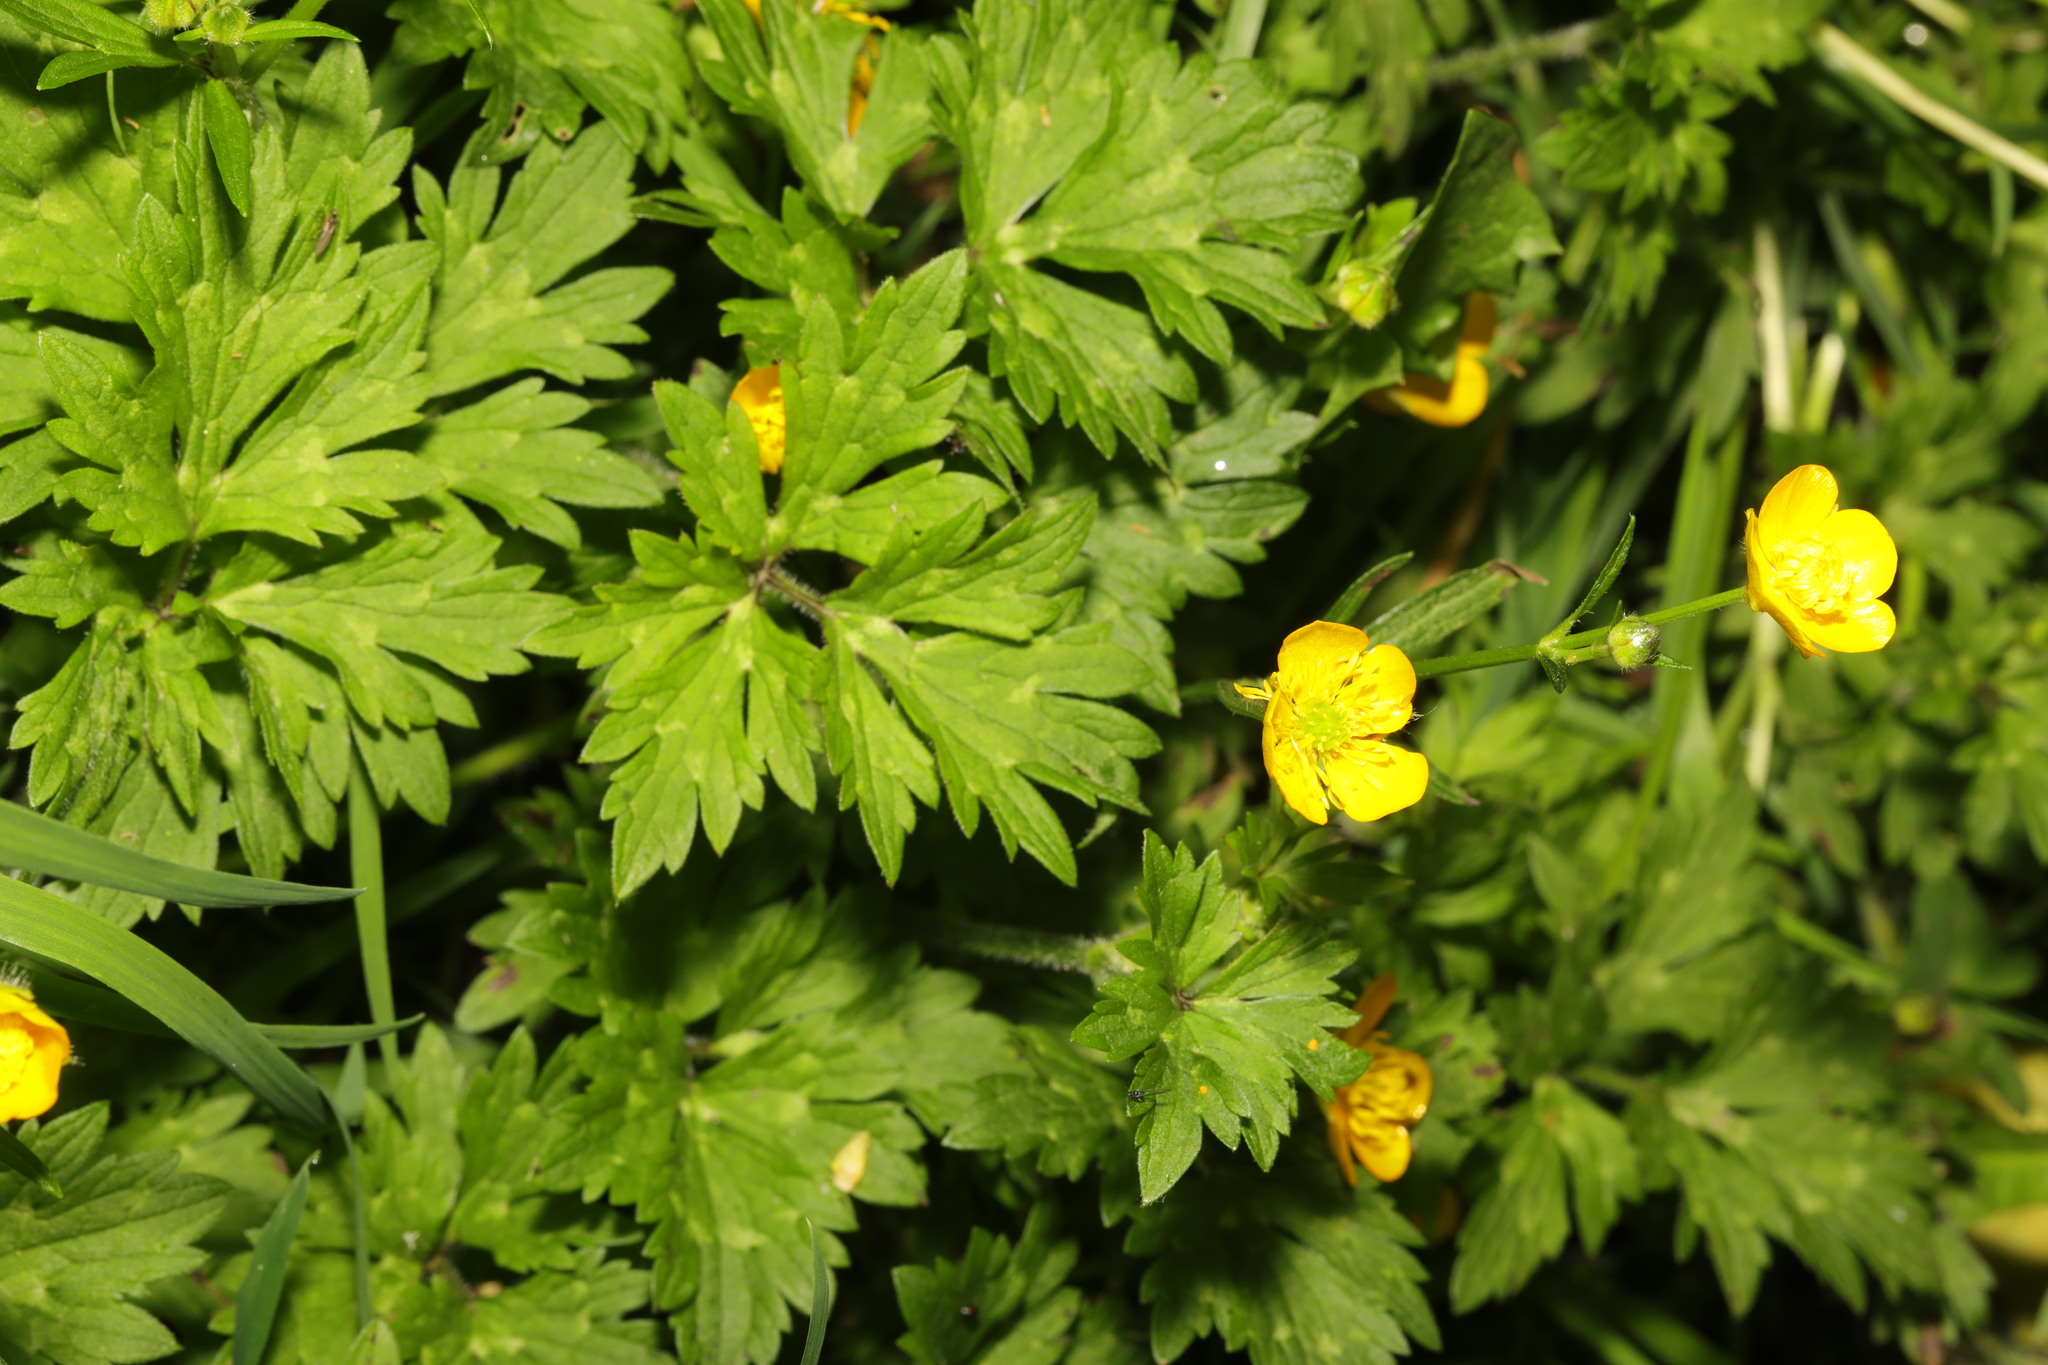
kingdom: Plantae
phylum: Tracheophyta
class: Magnoliopsida
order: Ranunculales
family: Ranunculaceae
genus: Ranunculus
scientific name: Ranunculus repens
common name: Creeping buttercup
